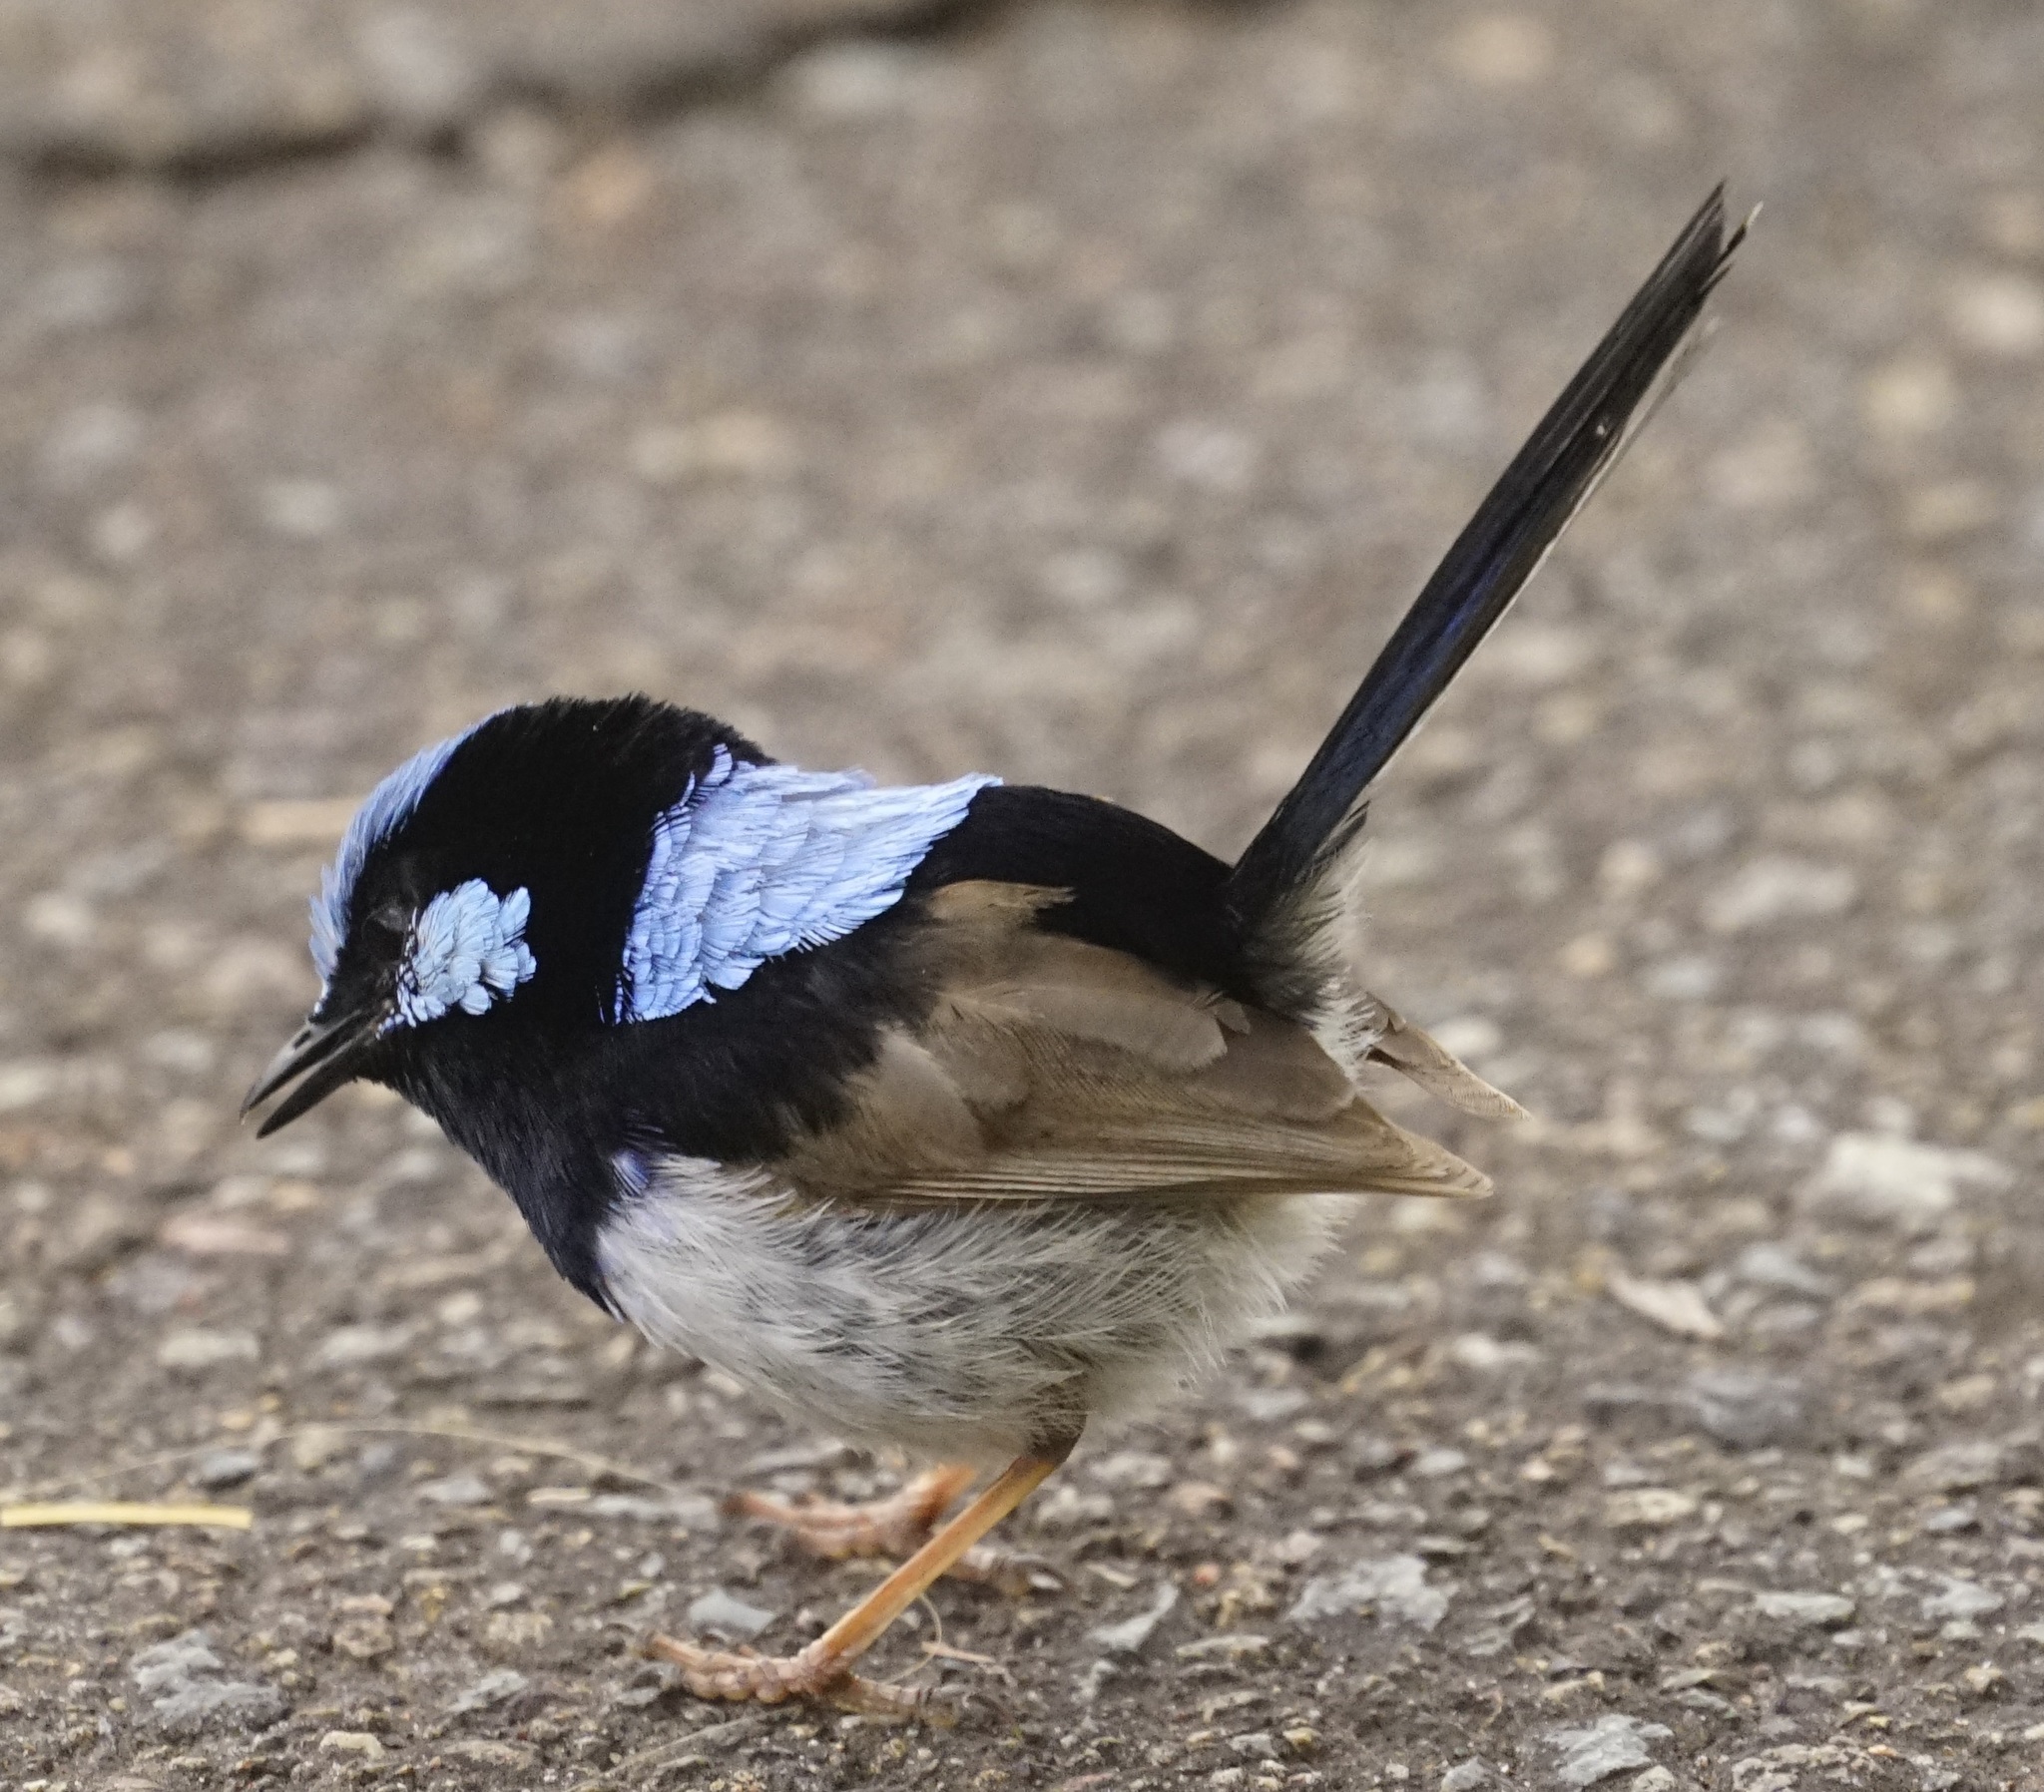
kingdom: Animalia
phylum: Chordata
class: Aves
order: Passeriformes
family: Maluridae
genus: Malurus
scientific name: Malurus cyaneus
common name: Superb fairywren
